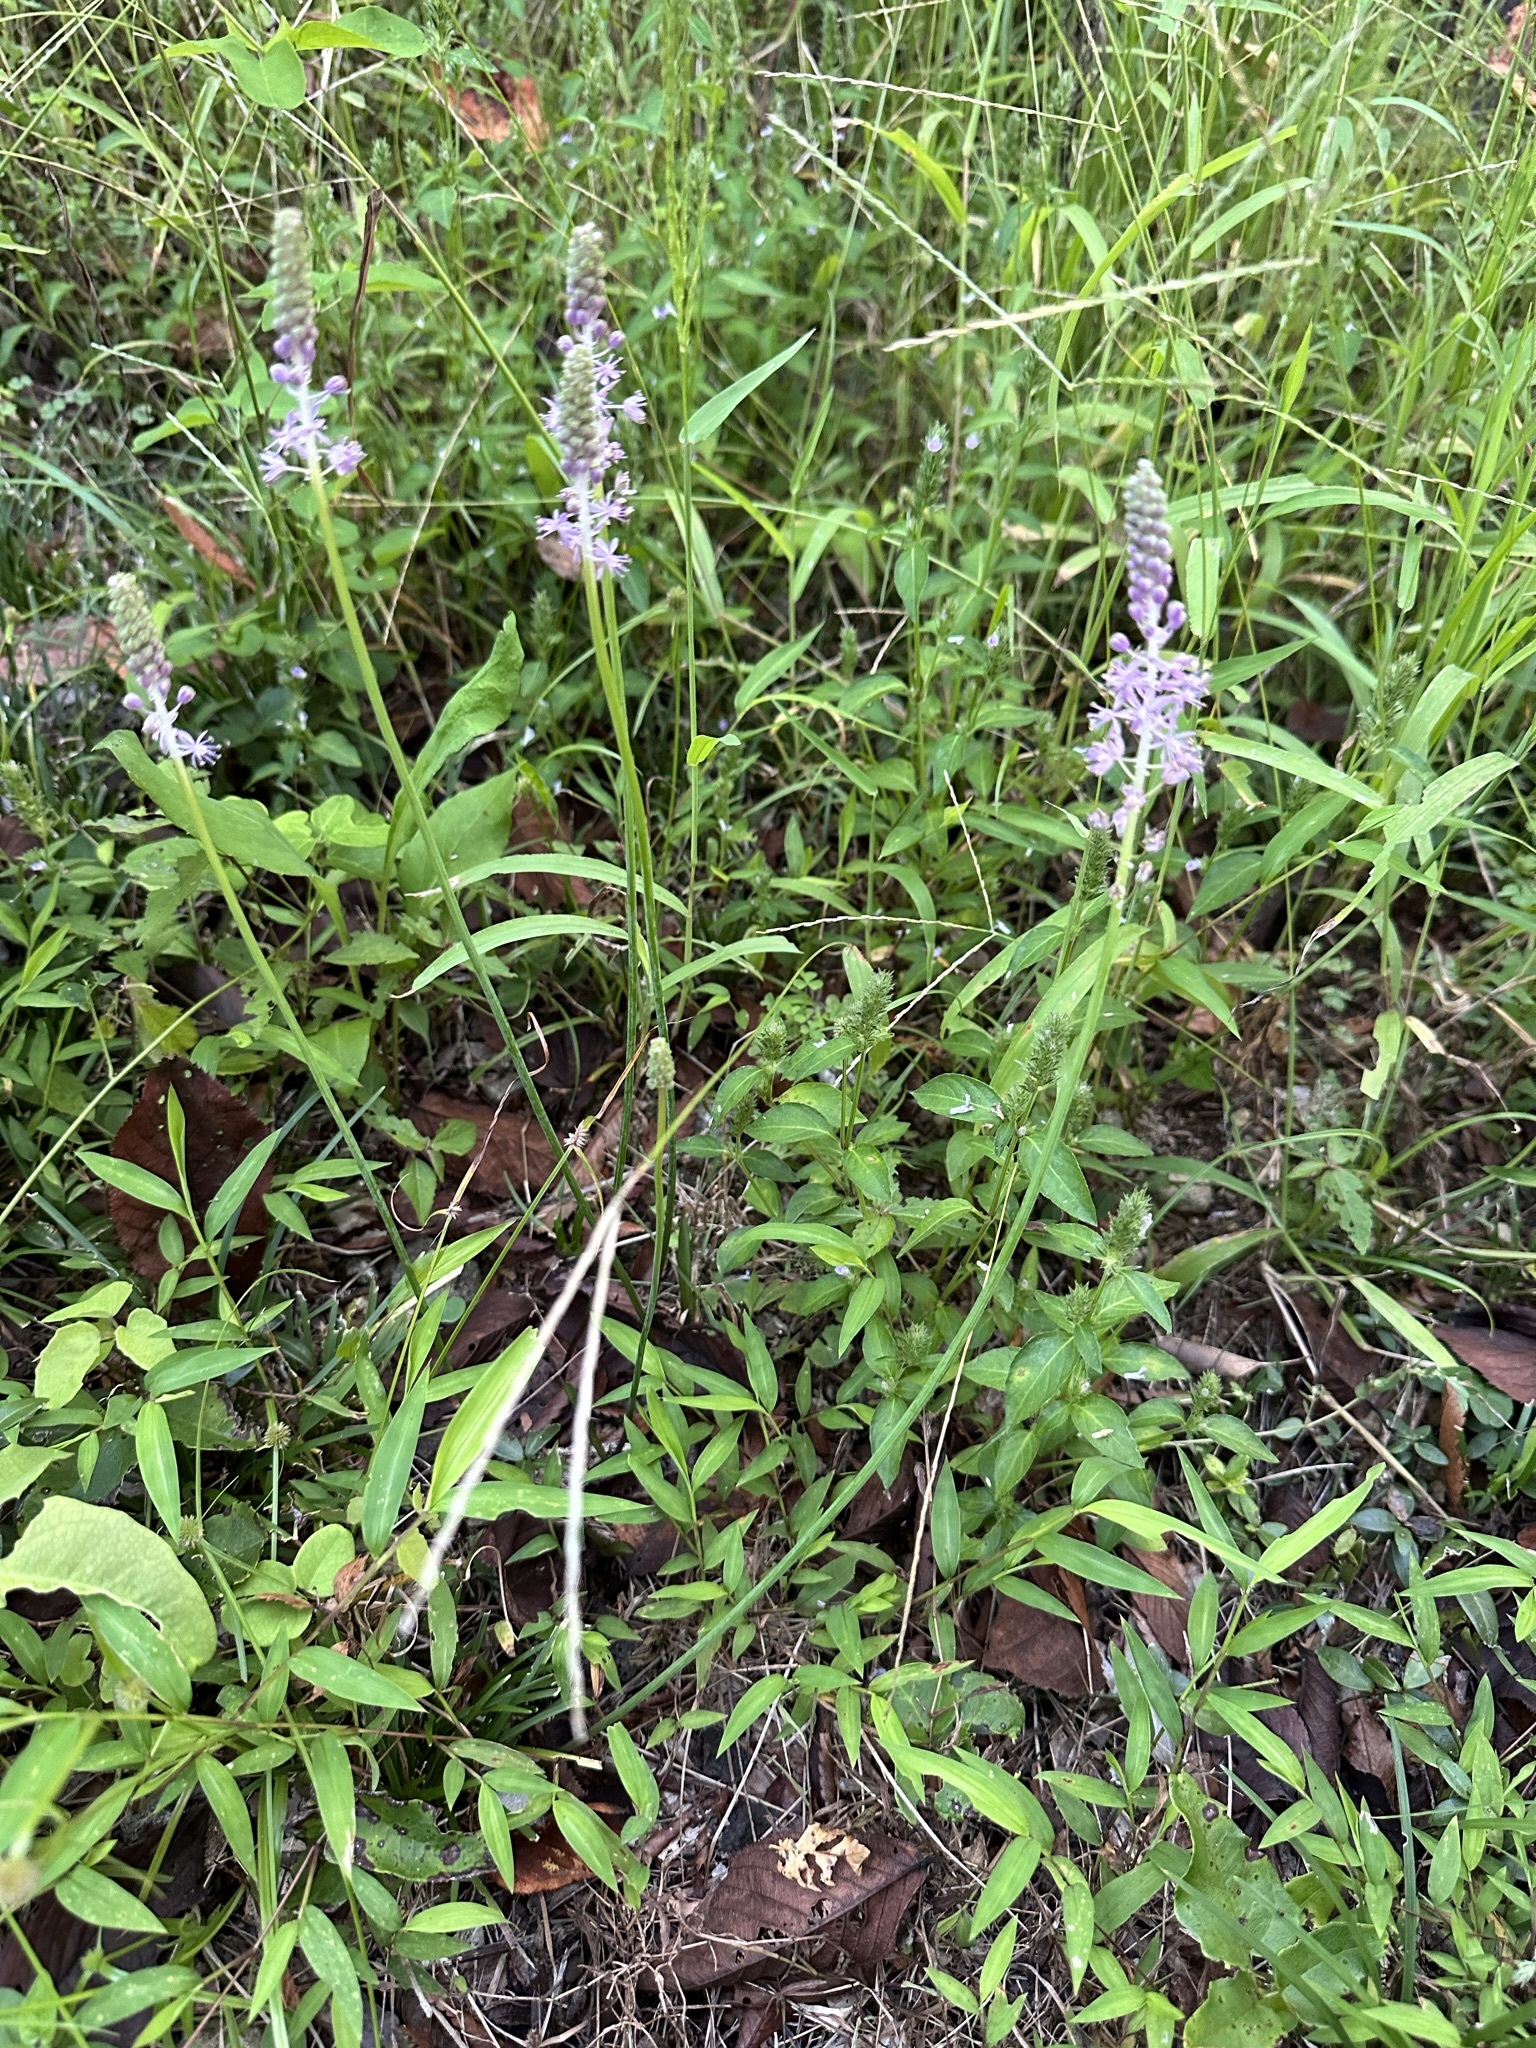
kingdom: Plantae
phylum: Tracheophyta
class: Liliopsida
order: Asparagales
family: Asparagaceae
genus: Barnardia
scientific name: Barnardia japonica
